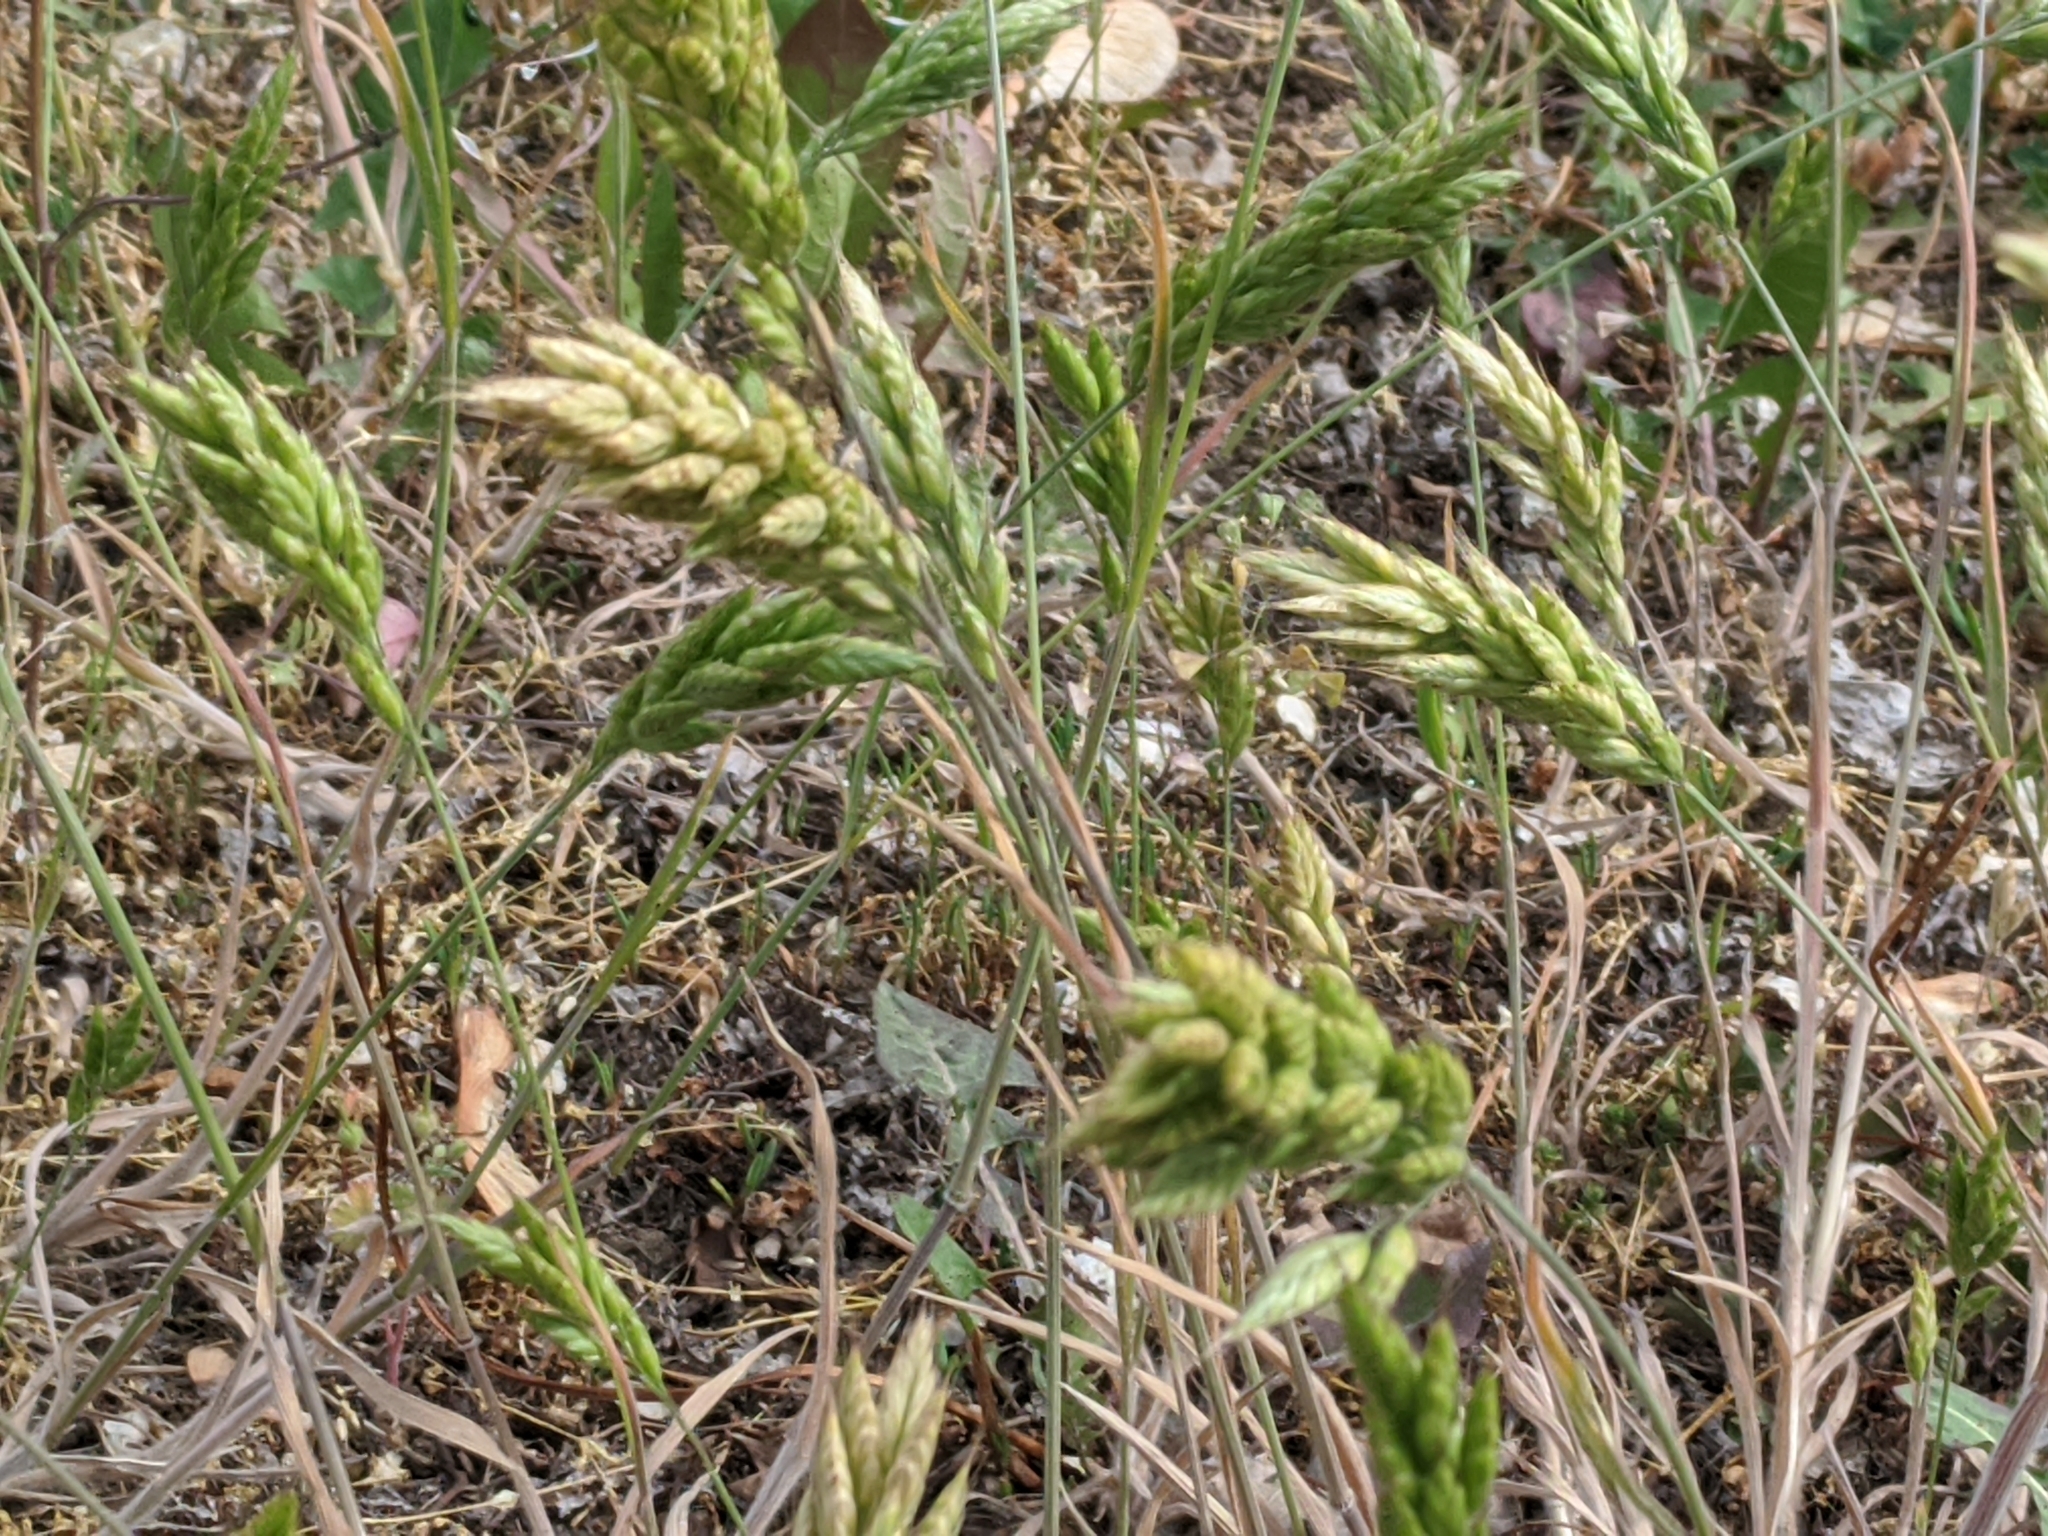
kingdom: Plantae
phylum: Tracheophyta
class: Liliopsida
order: Poales
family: Poaceae
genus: Bromus
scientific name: Bromus hordeaceus
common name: Soft brome
